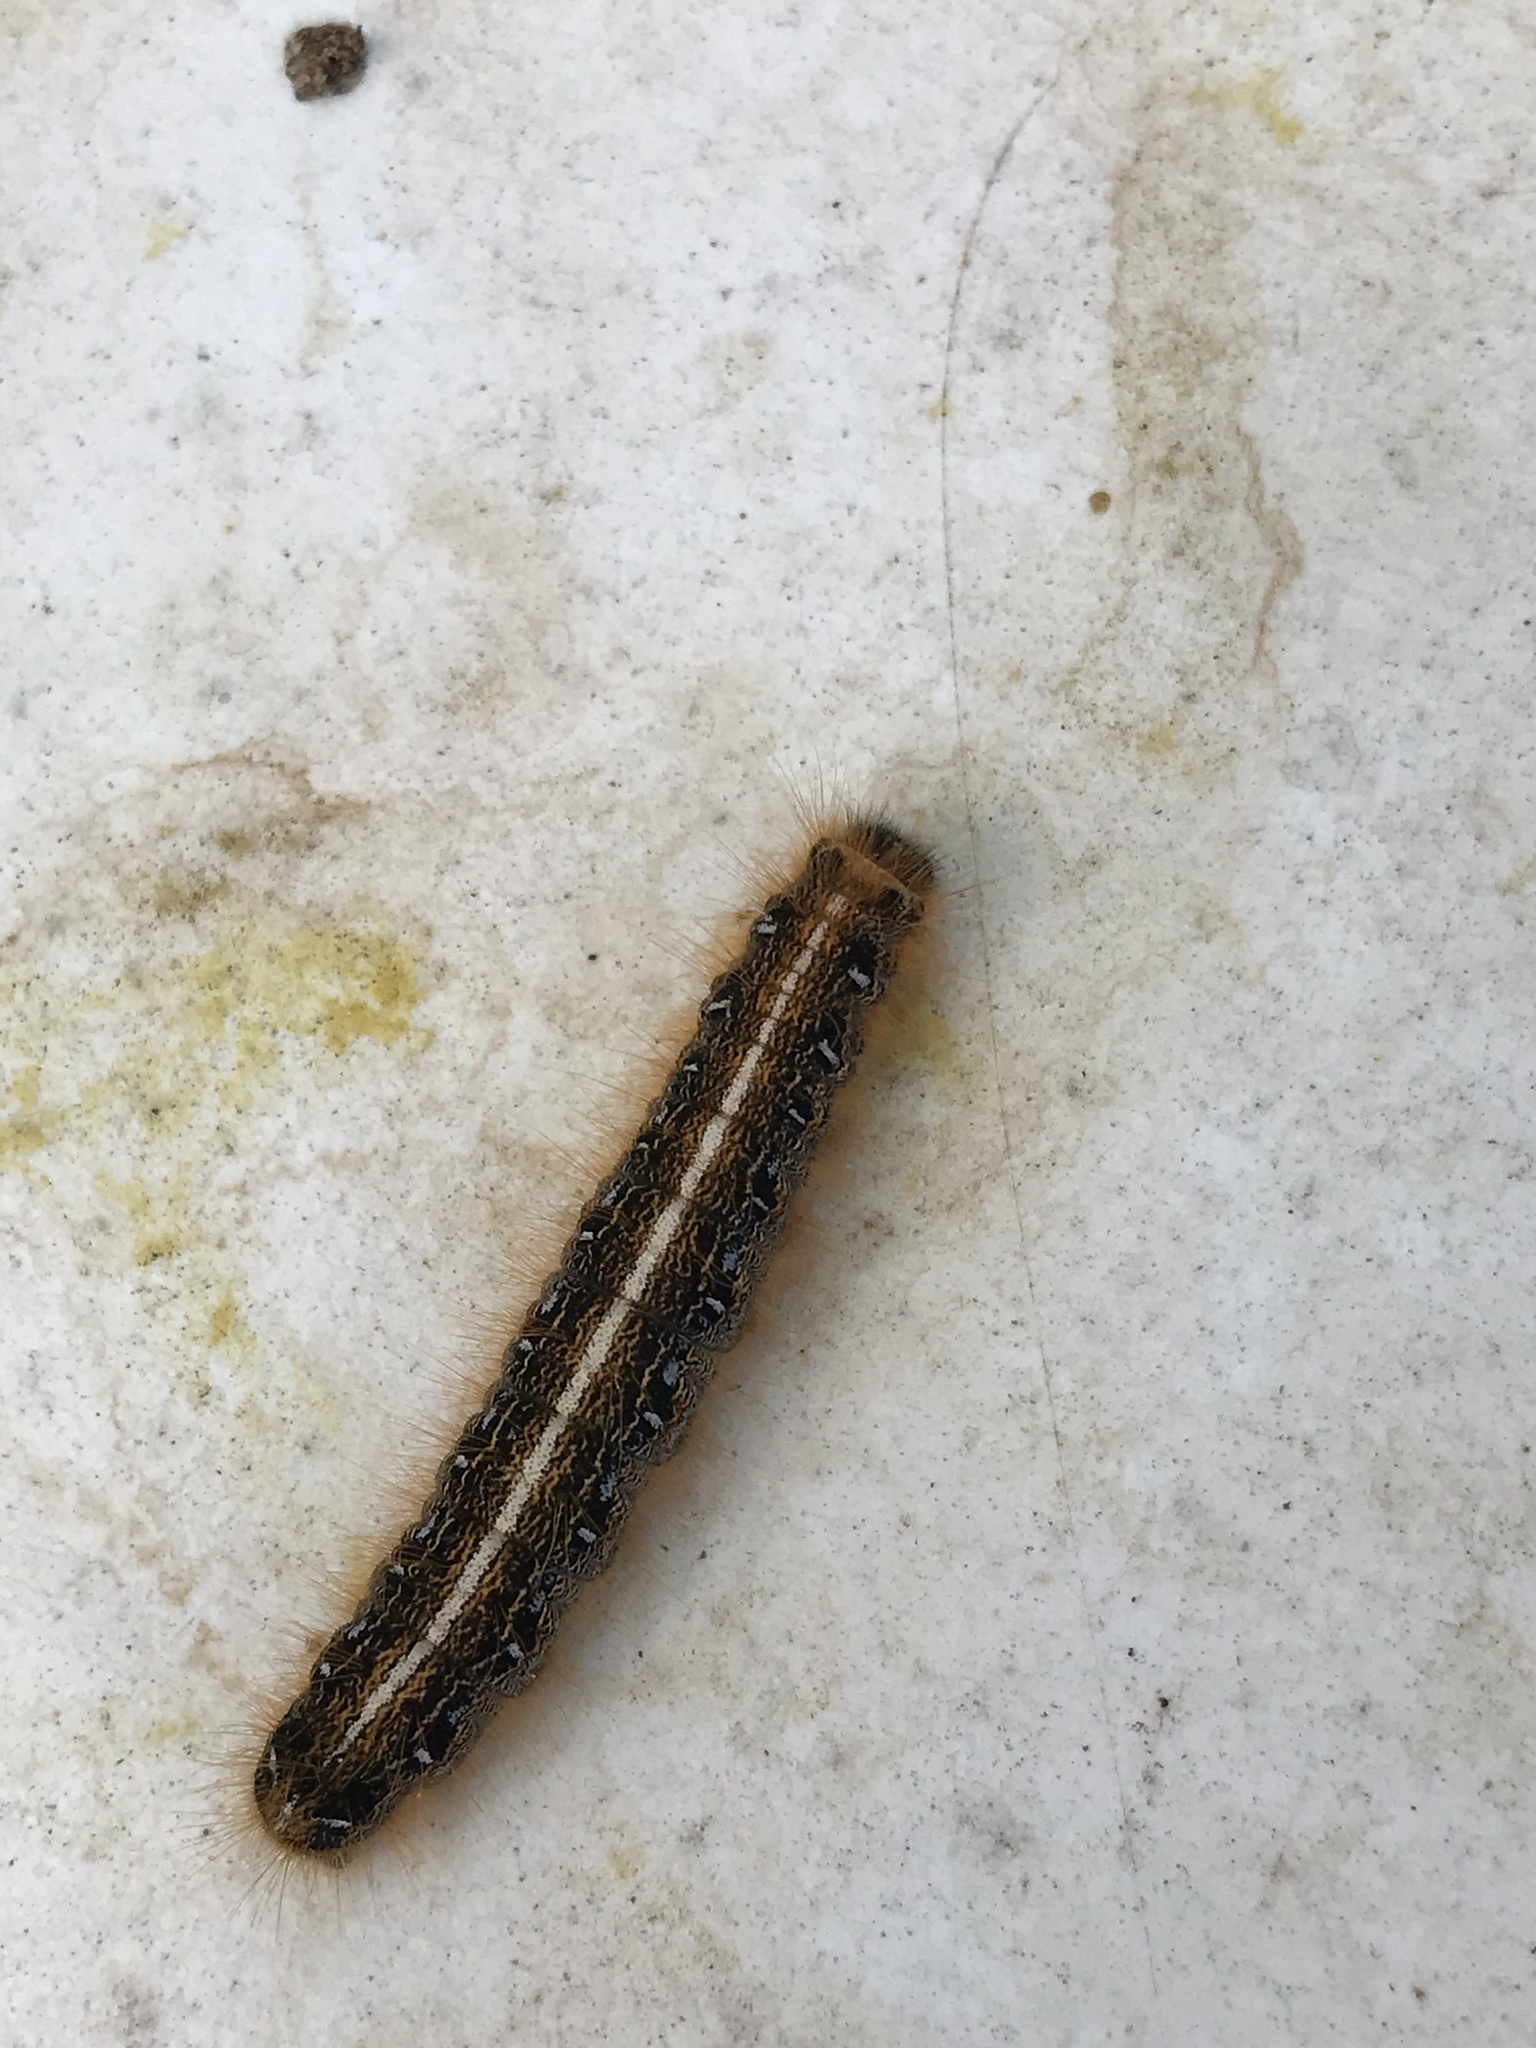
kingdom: Animalia
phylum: Arthropoda
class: Insecta
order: Lepidoptera
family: Lasiocampidae
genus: Malacosoma
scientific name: Malacosoma americana
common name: Eastern tent caterpillar moth
